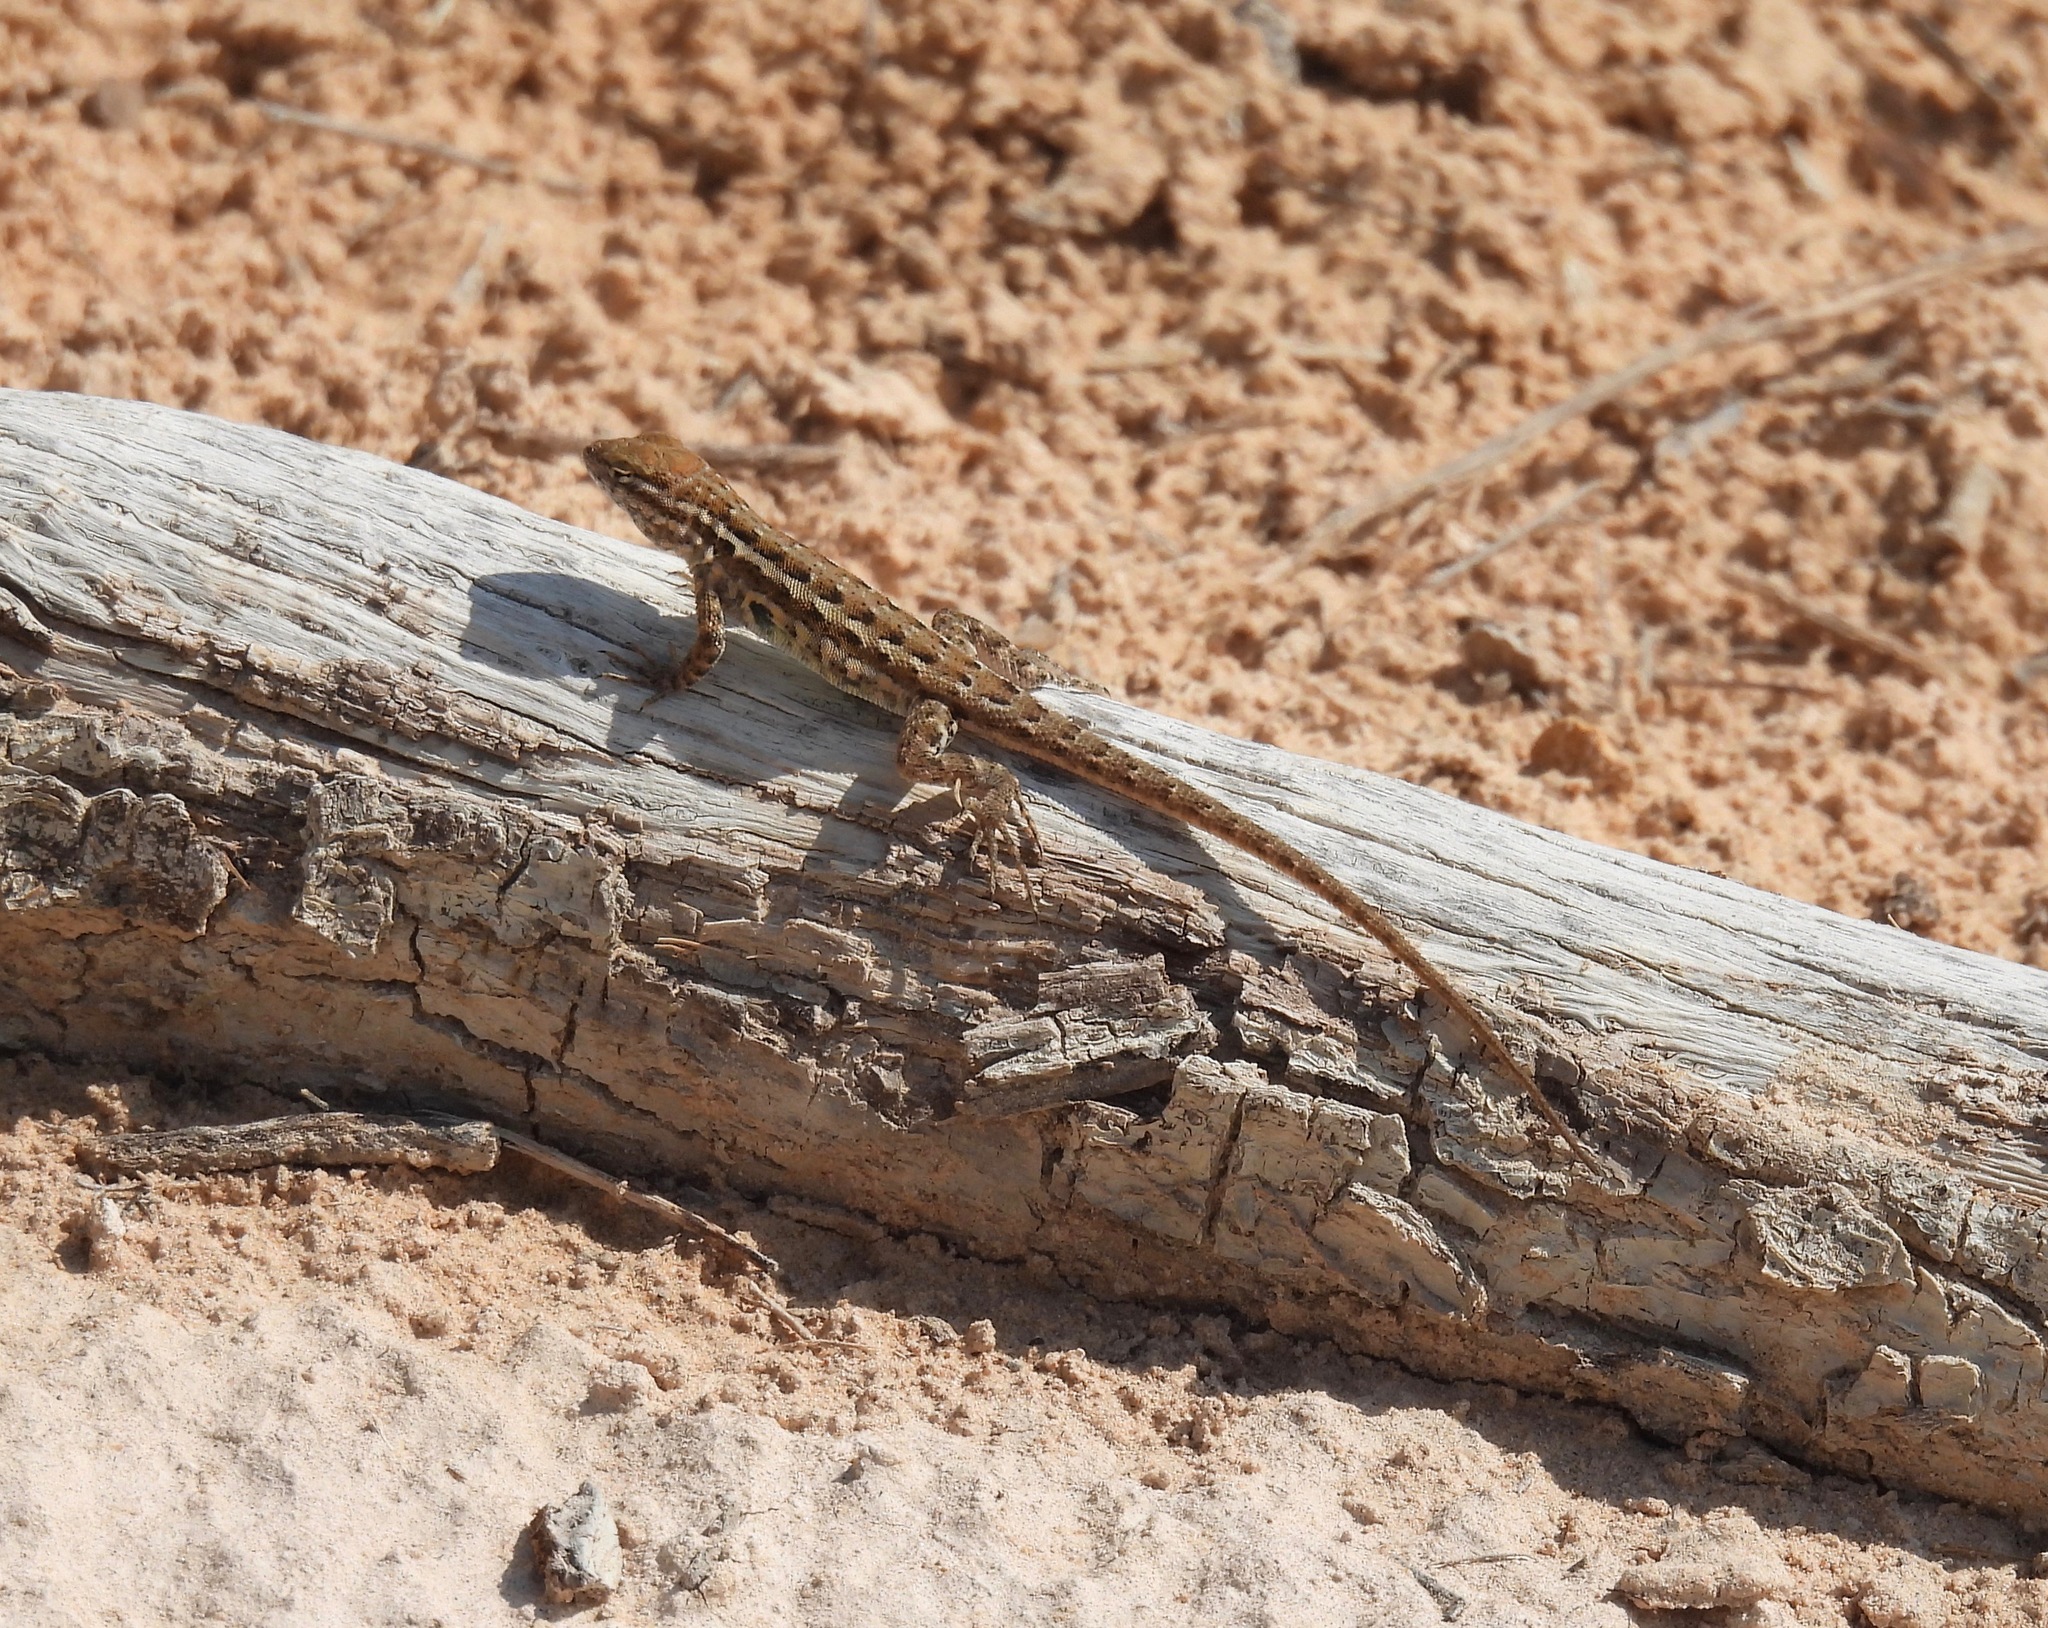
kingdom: Animalia
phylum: Chordata
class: Squamata
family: Phrynosomatidae
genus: Uta
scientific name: Uta stansburiana
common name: Side-blotched lizard
